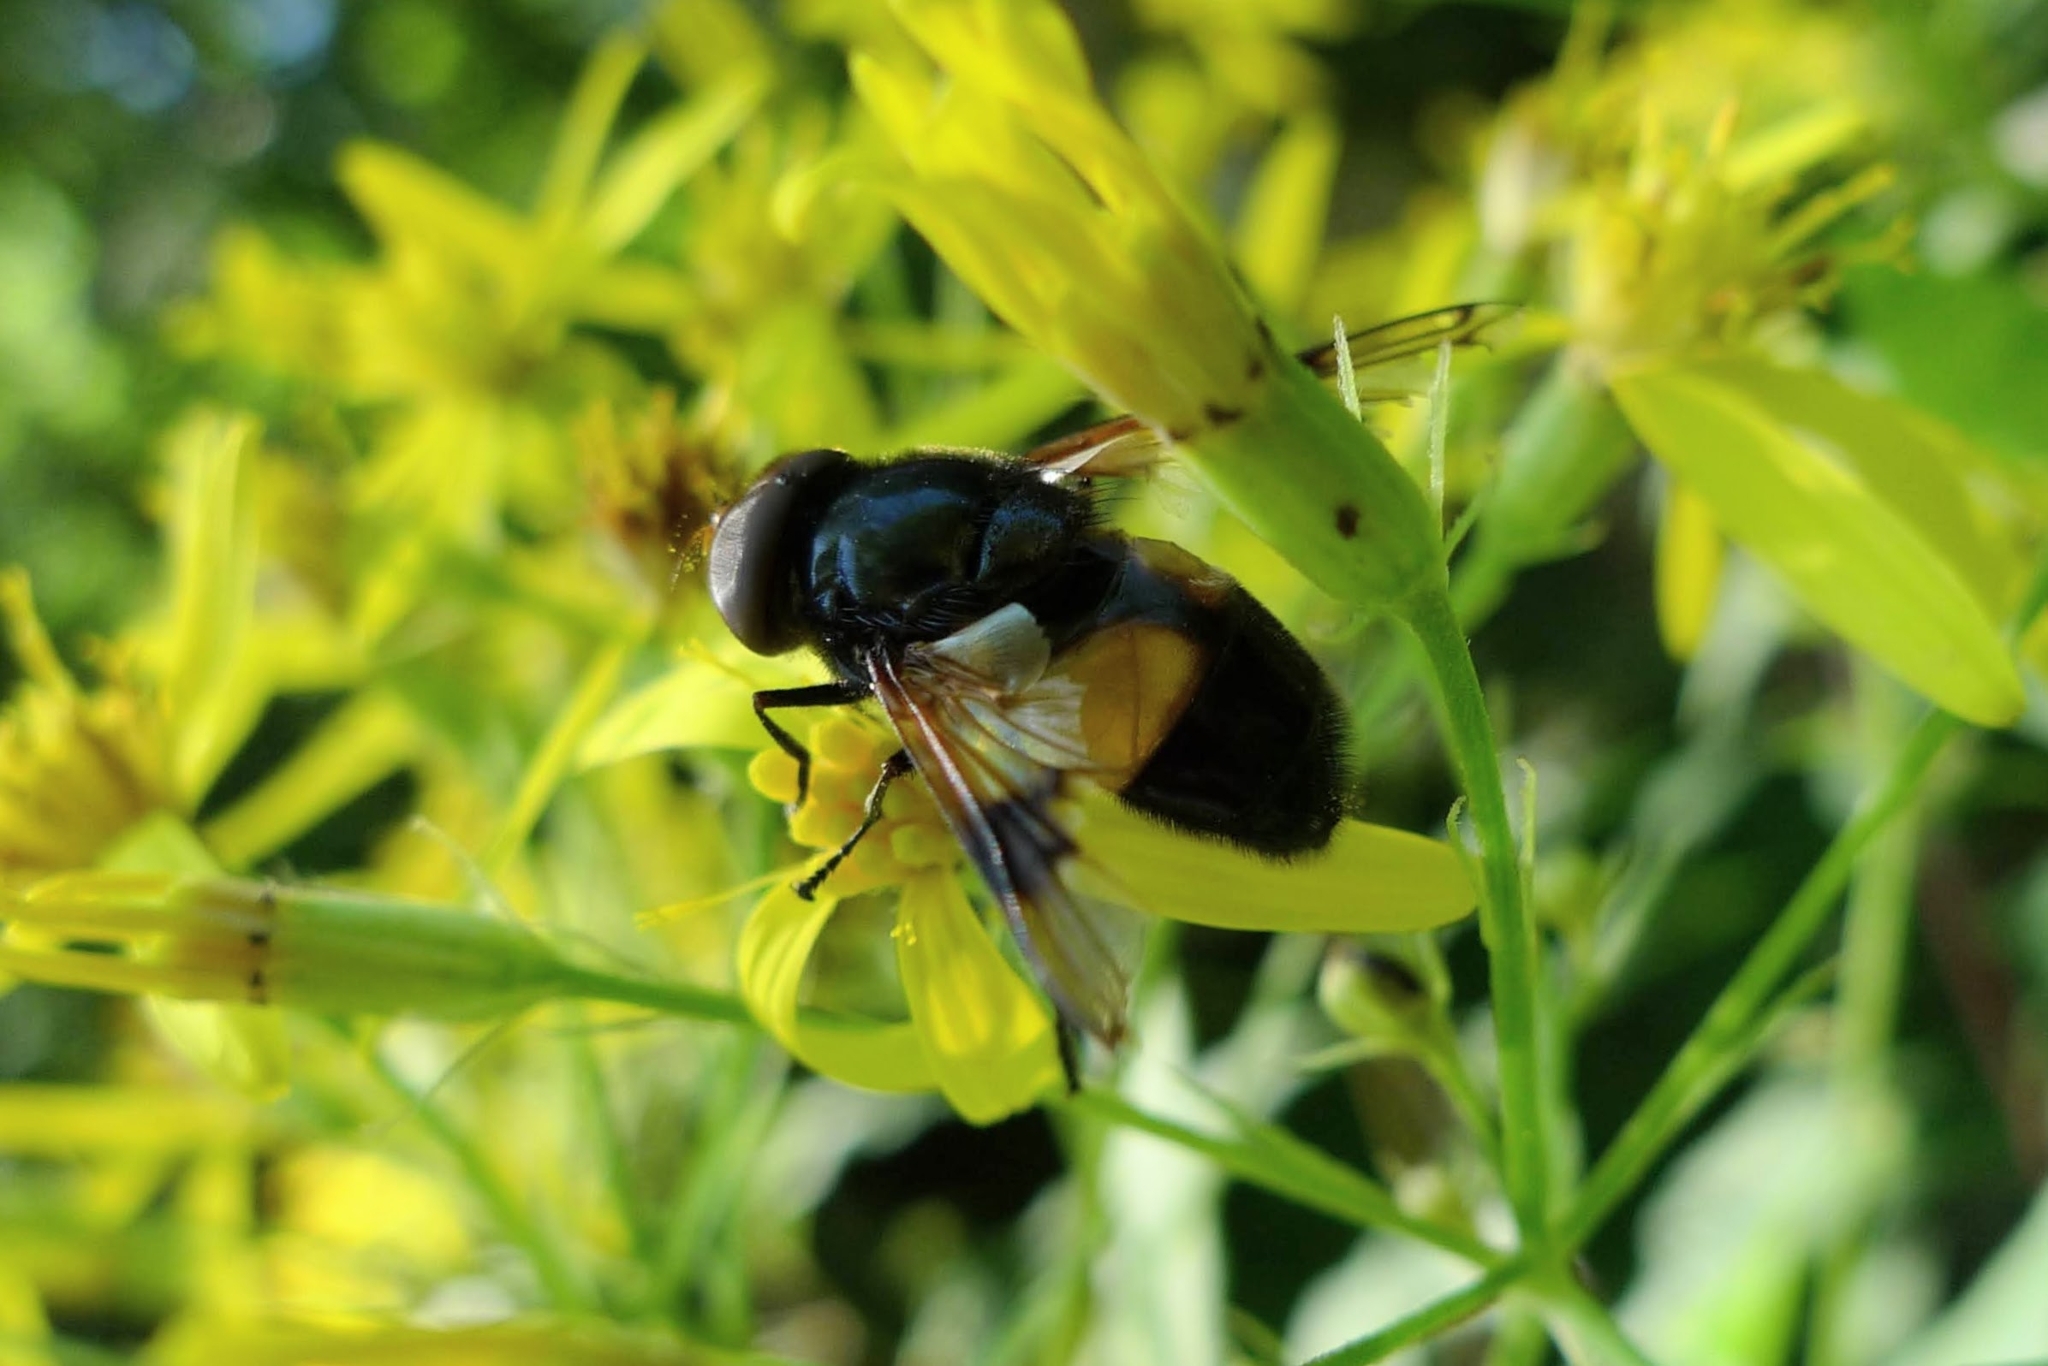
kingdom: Animalia
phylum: Arthropoda
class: Insecta
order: Diptera
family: Syrphidae
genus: Volucella
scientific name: Volucella pellucens
